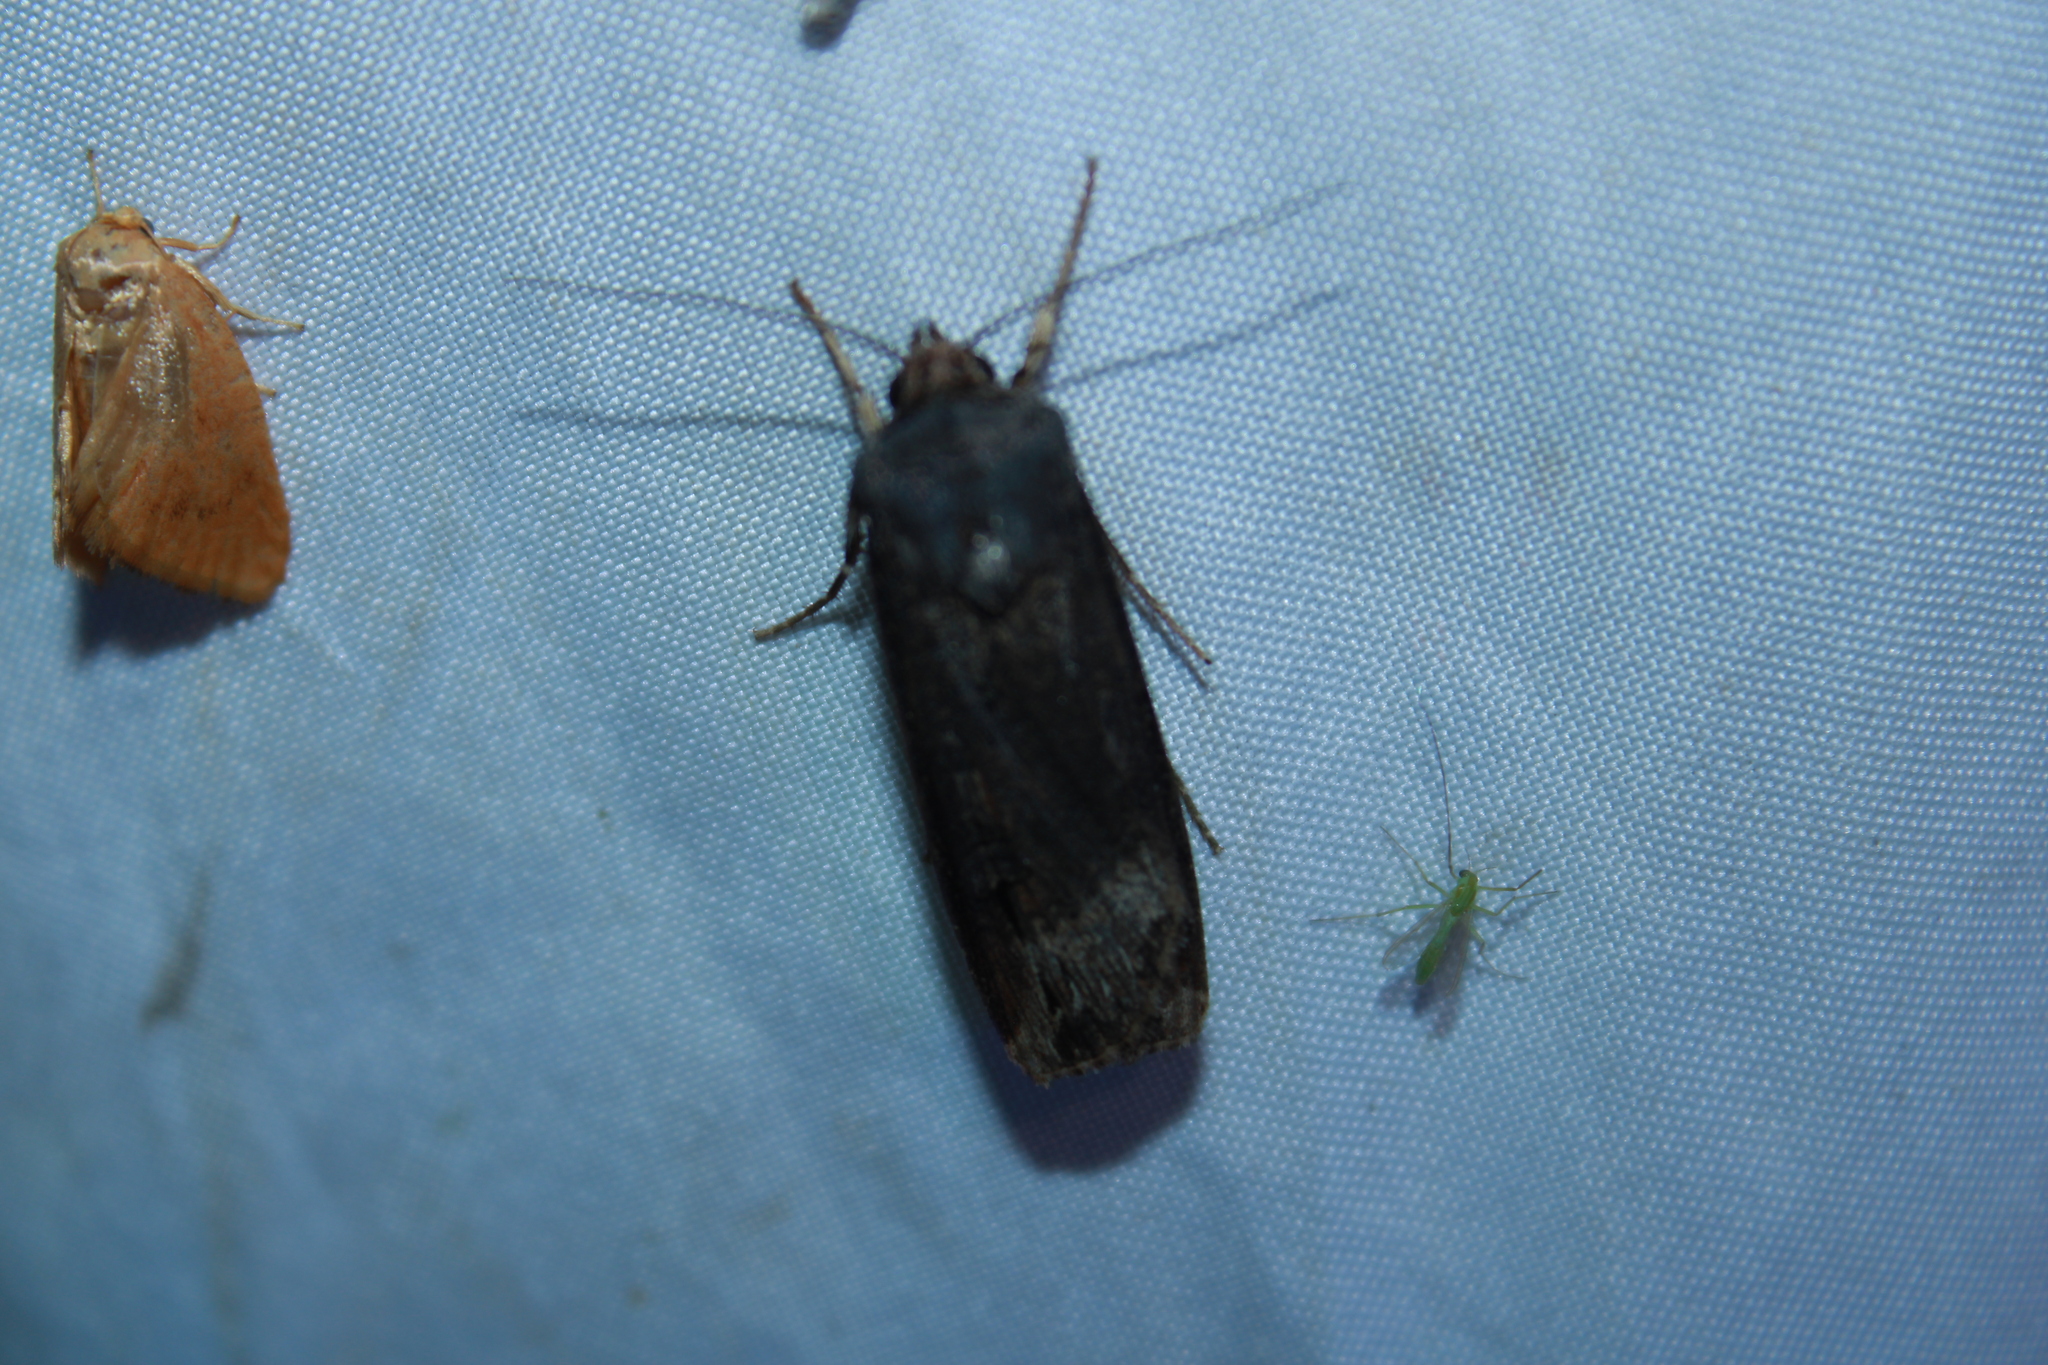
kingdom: Animalia
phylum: Arthropoda
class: Insecta
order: Lepidoptera
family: Noctuidae
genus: Agrotis
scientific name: Agrotis ipsilon
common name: Dark sword-grass
